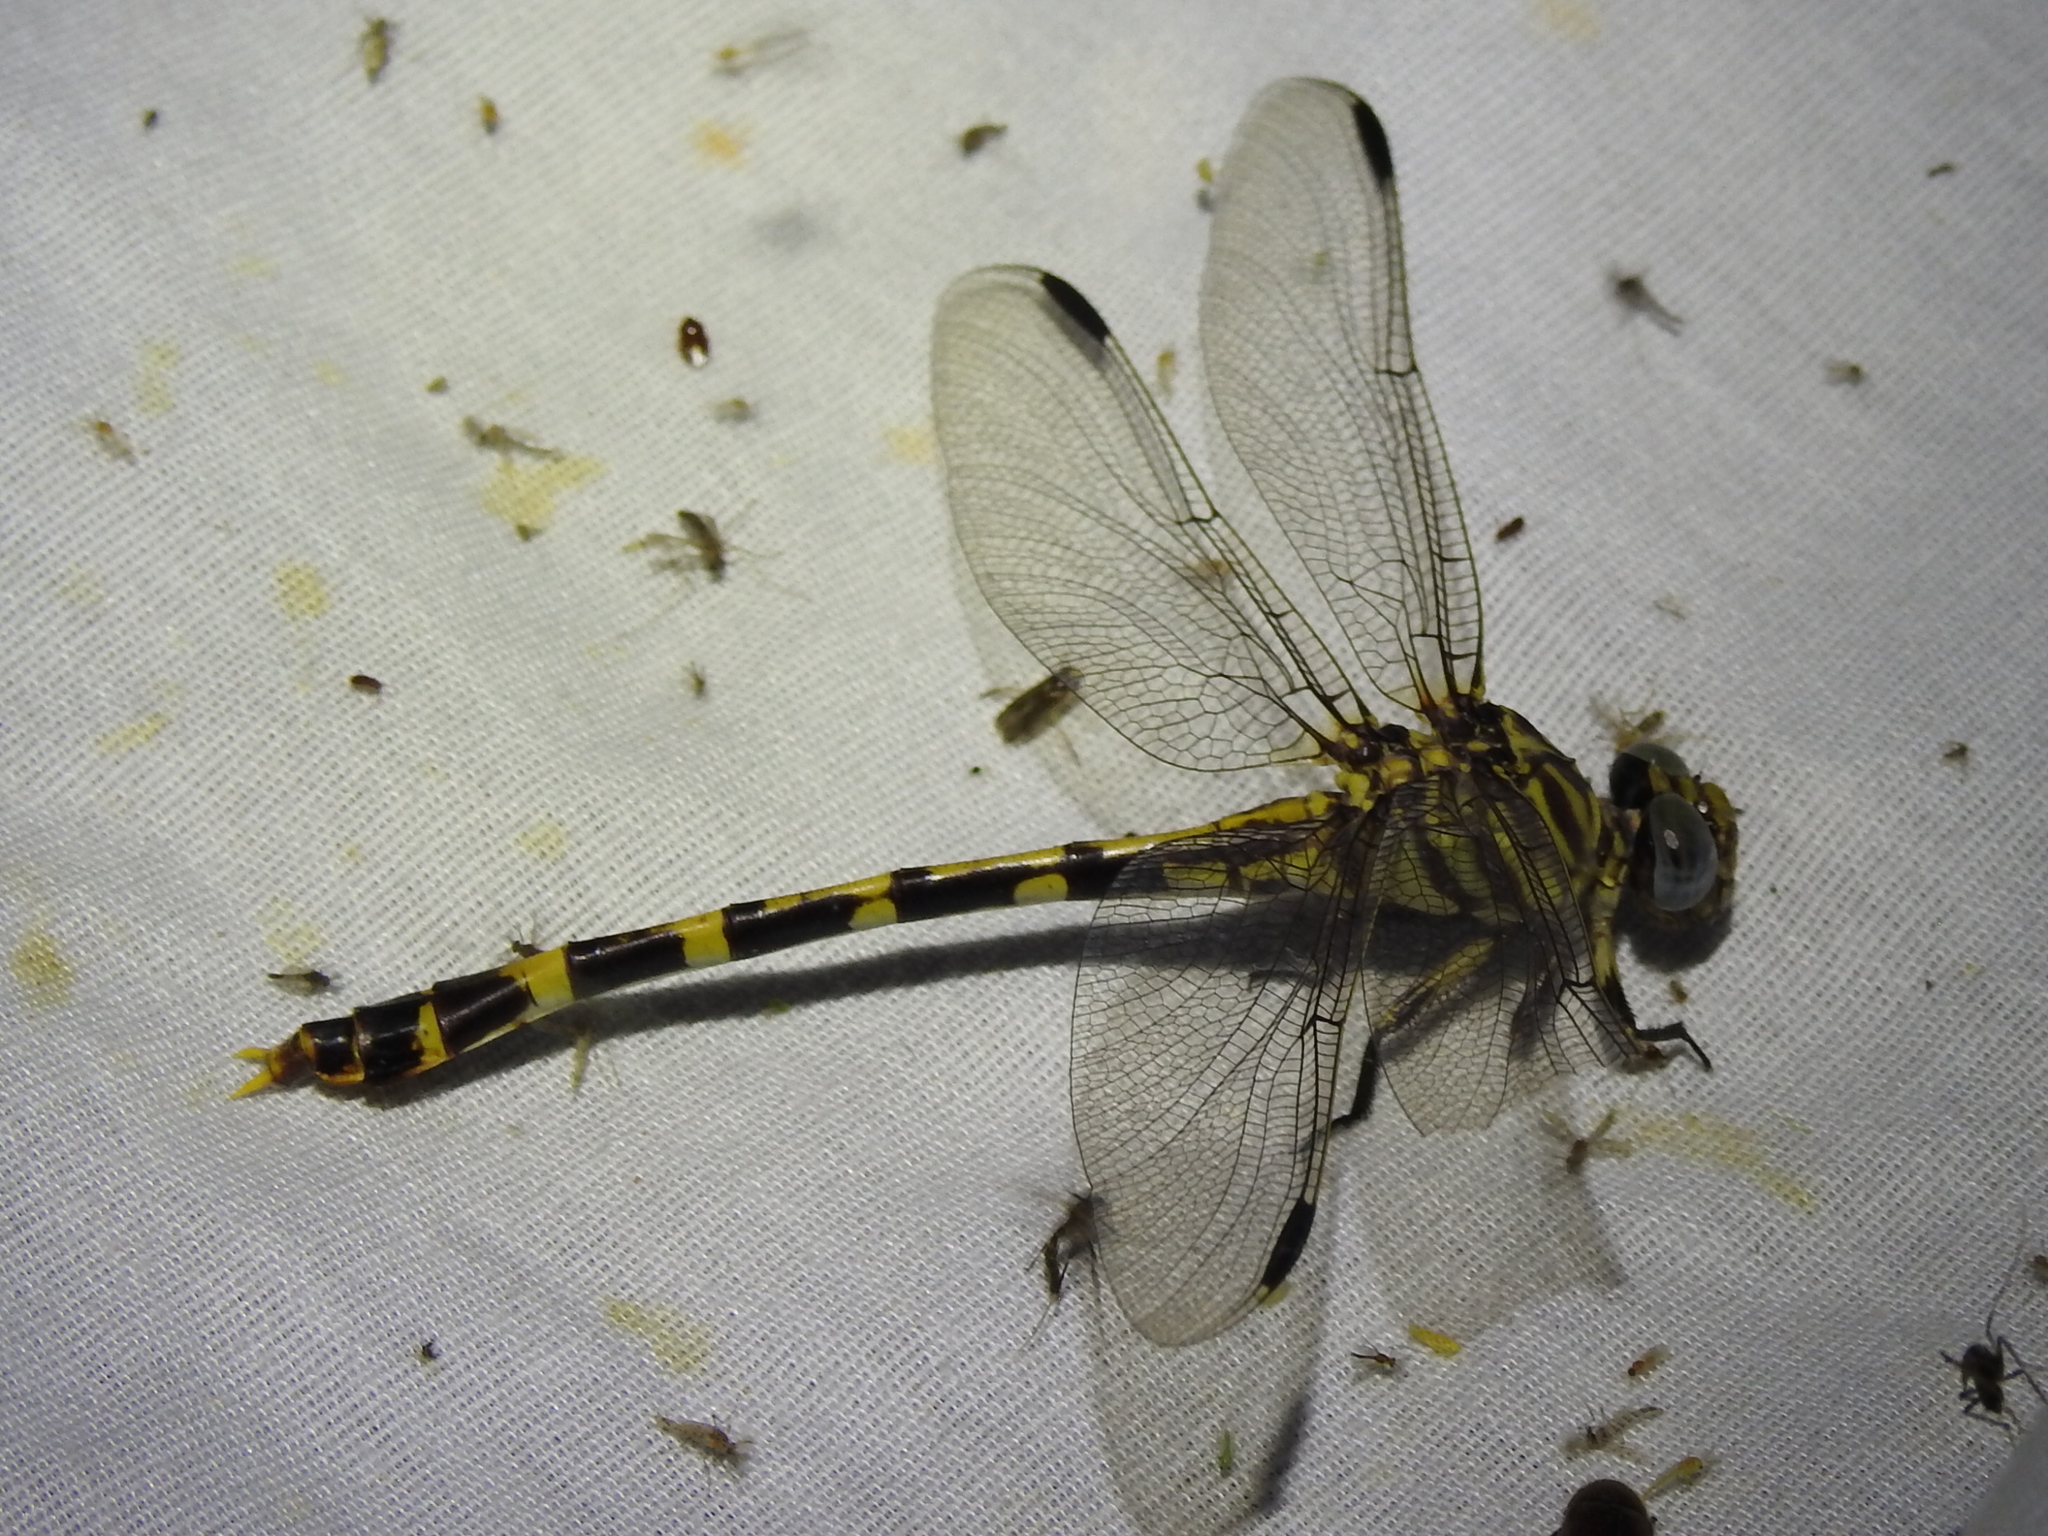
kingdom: Animalia
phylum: Arthropoda
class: Insecta
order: Odonata
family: Gomphidae
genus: Phyllogomphoides
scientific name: Phyllogomphoides stigmatus
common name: Four-striped leaftail
